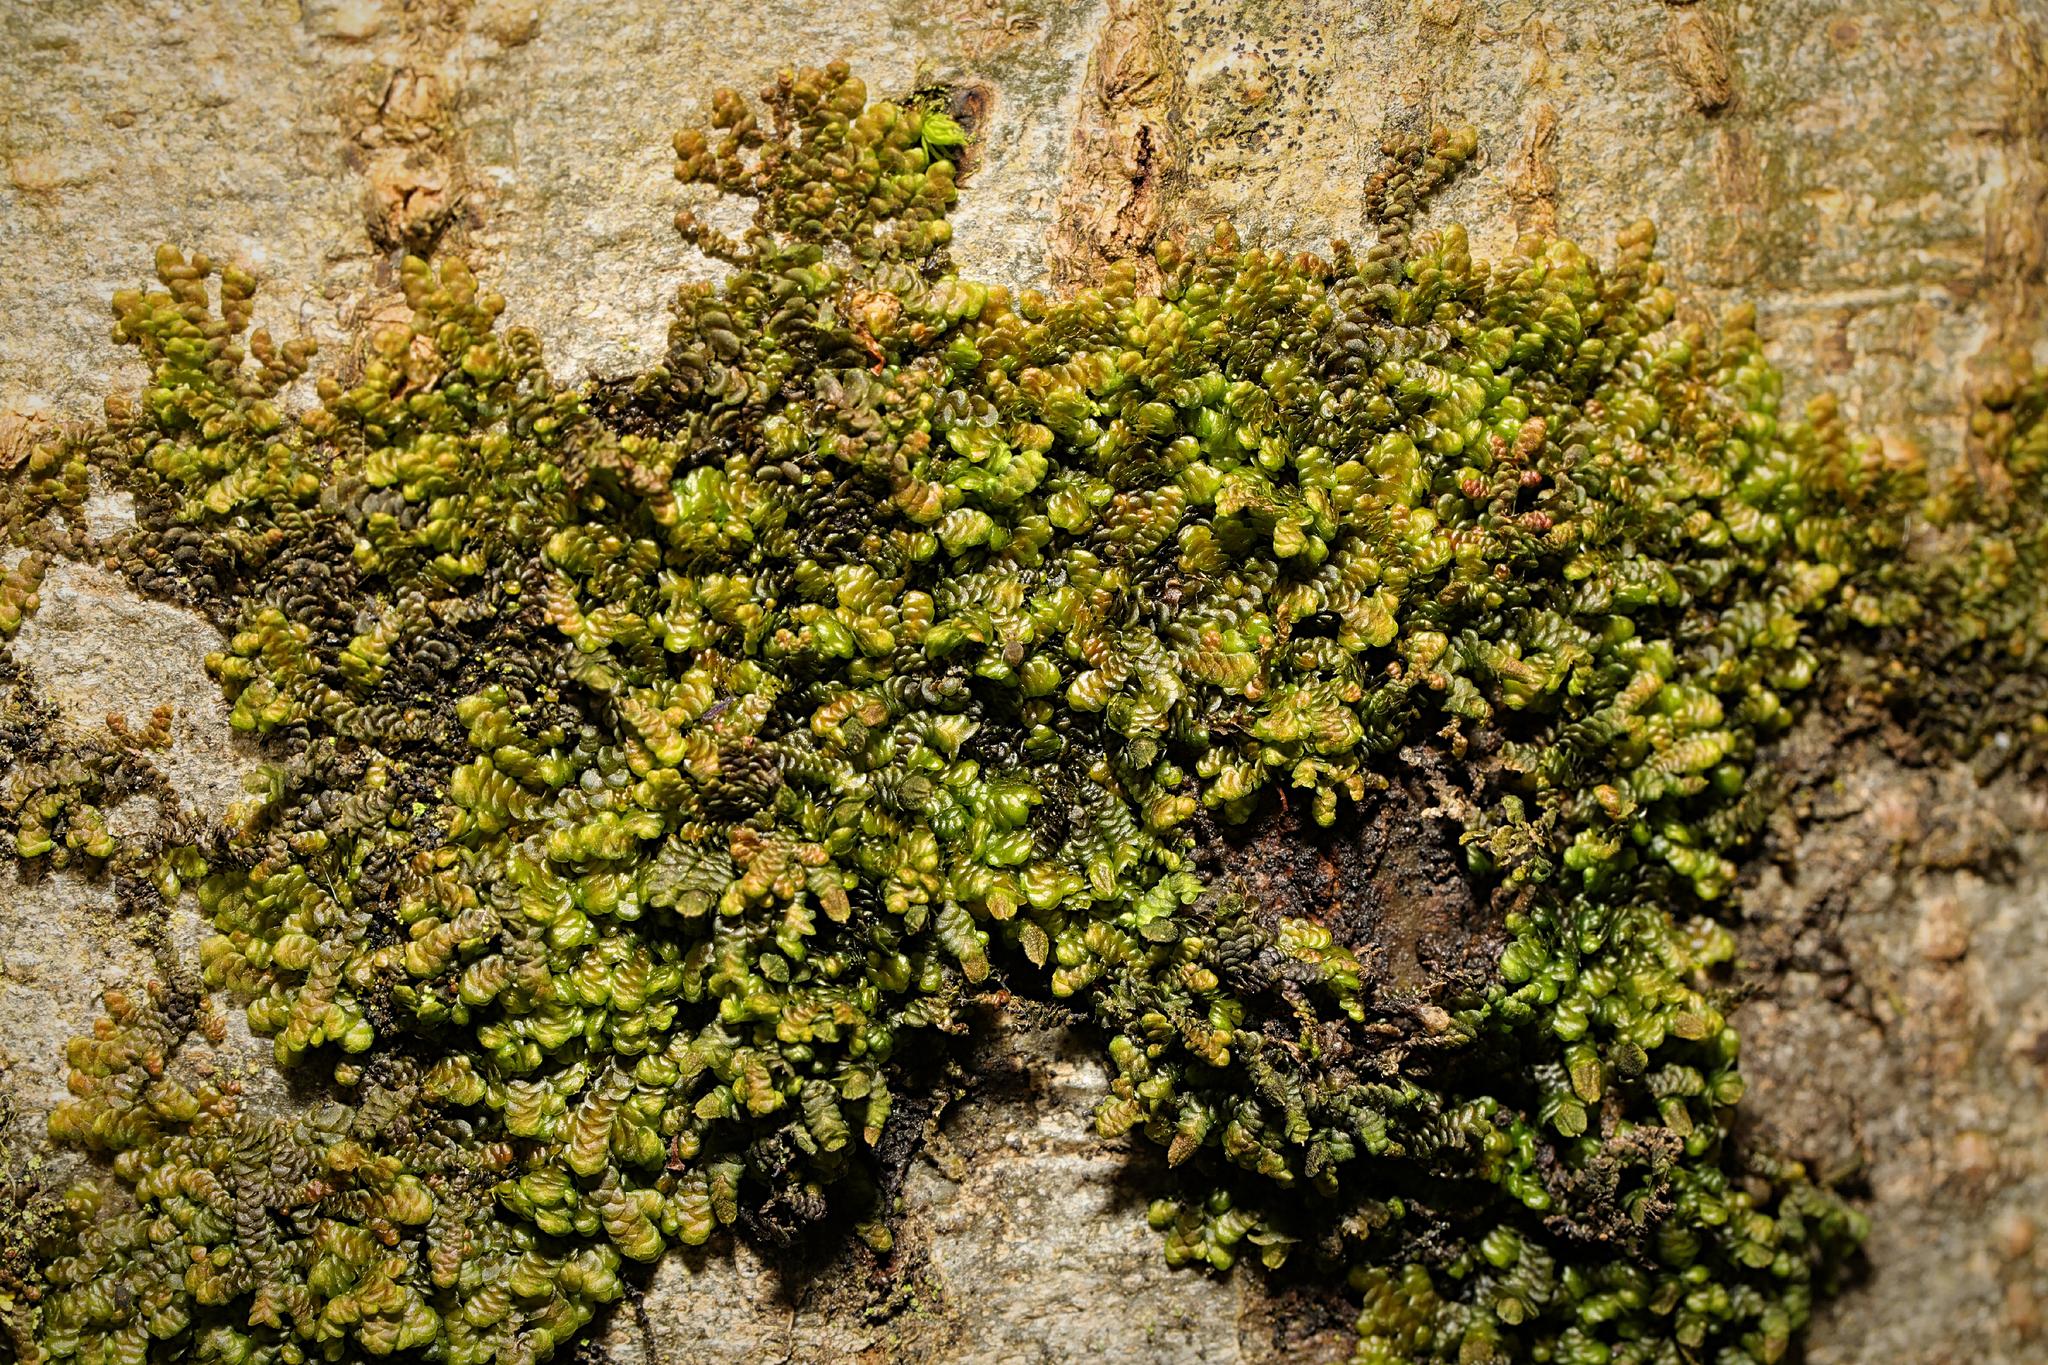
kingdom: Plantae
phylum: Marchantiophyta
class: Jungermanniopsida
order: Porellales
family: Frullaniaceae
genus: Frullania
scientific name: Frullania dilatata
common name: Dilated scalewort
